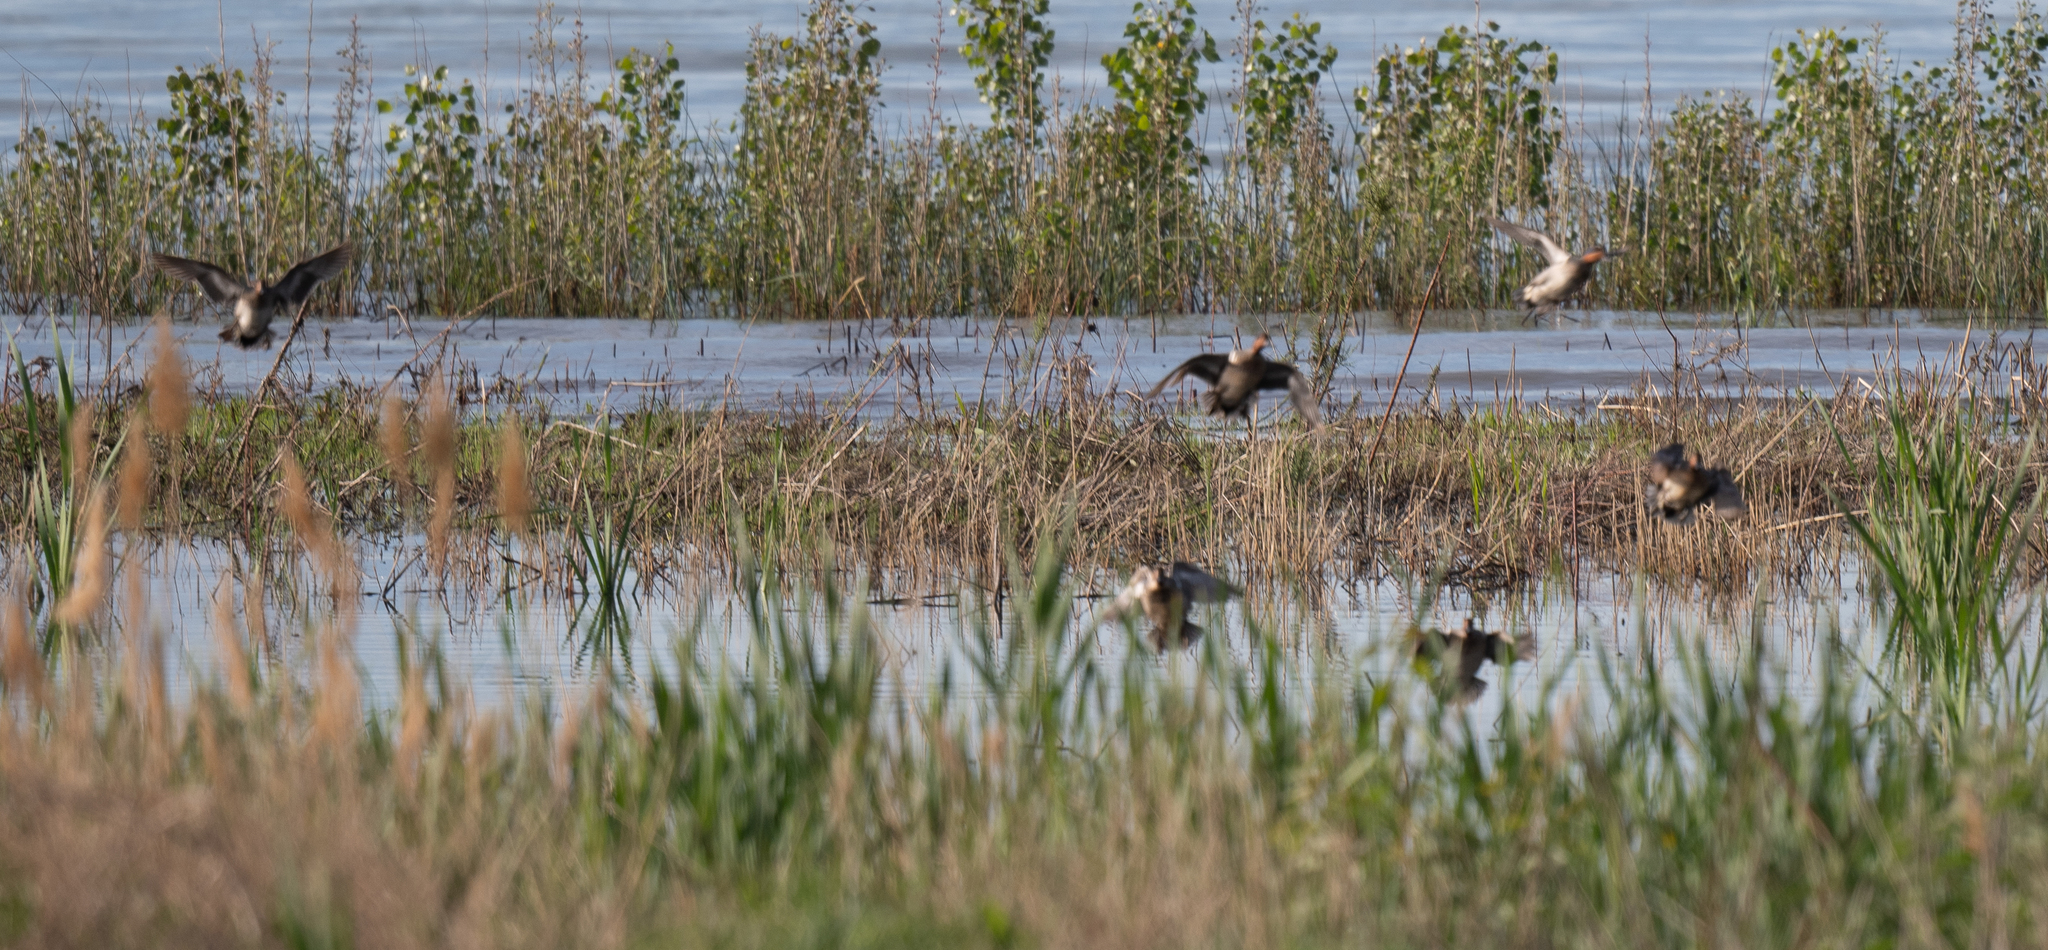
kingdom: Animalia
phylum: Chordata
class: Aves
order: Anseriformes
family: Anatidae
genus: Anas
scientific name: Anas crecca
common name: Eurasian teal
